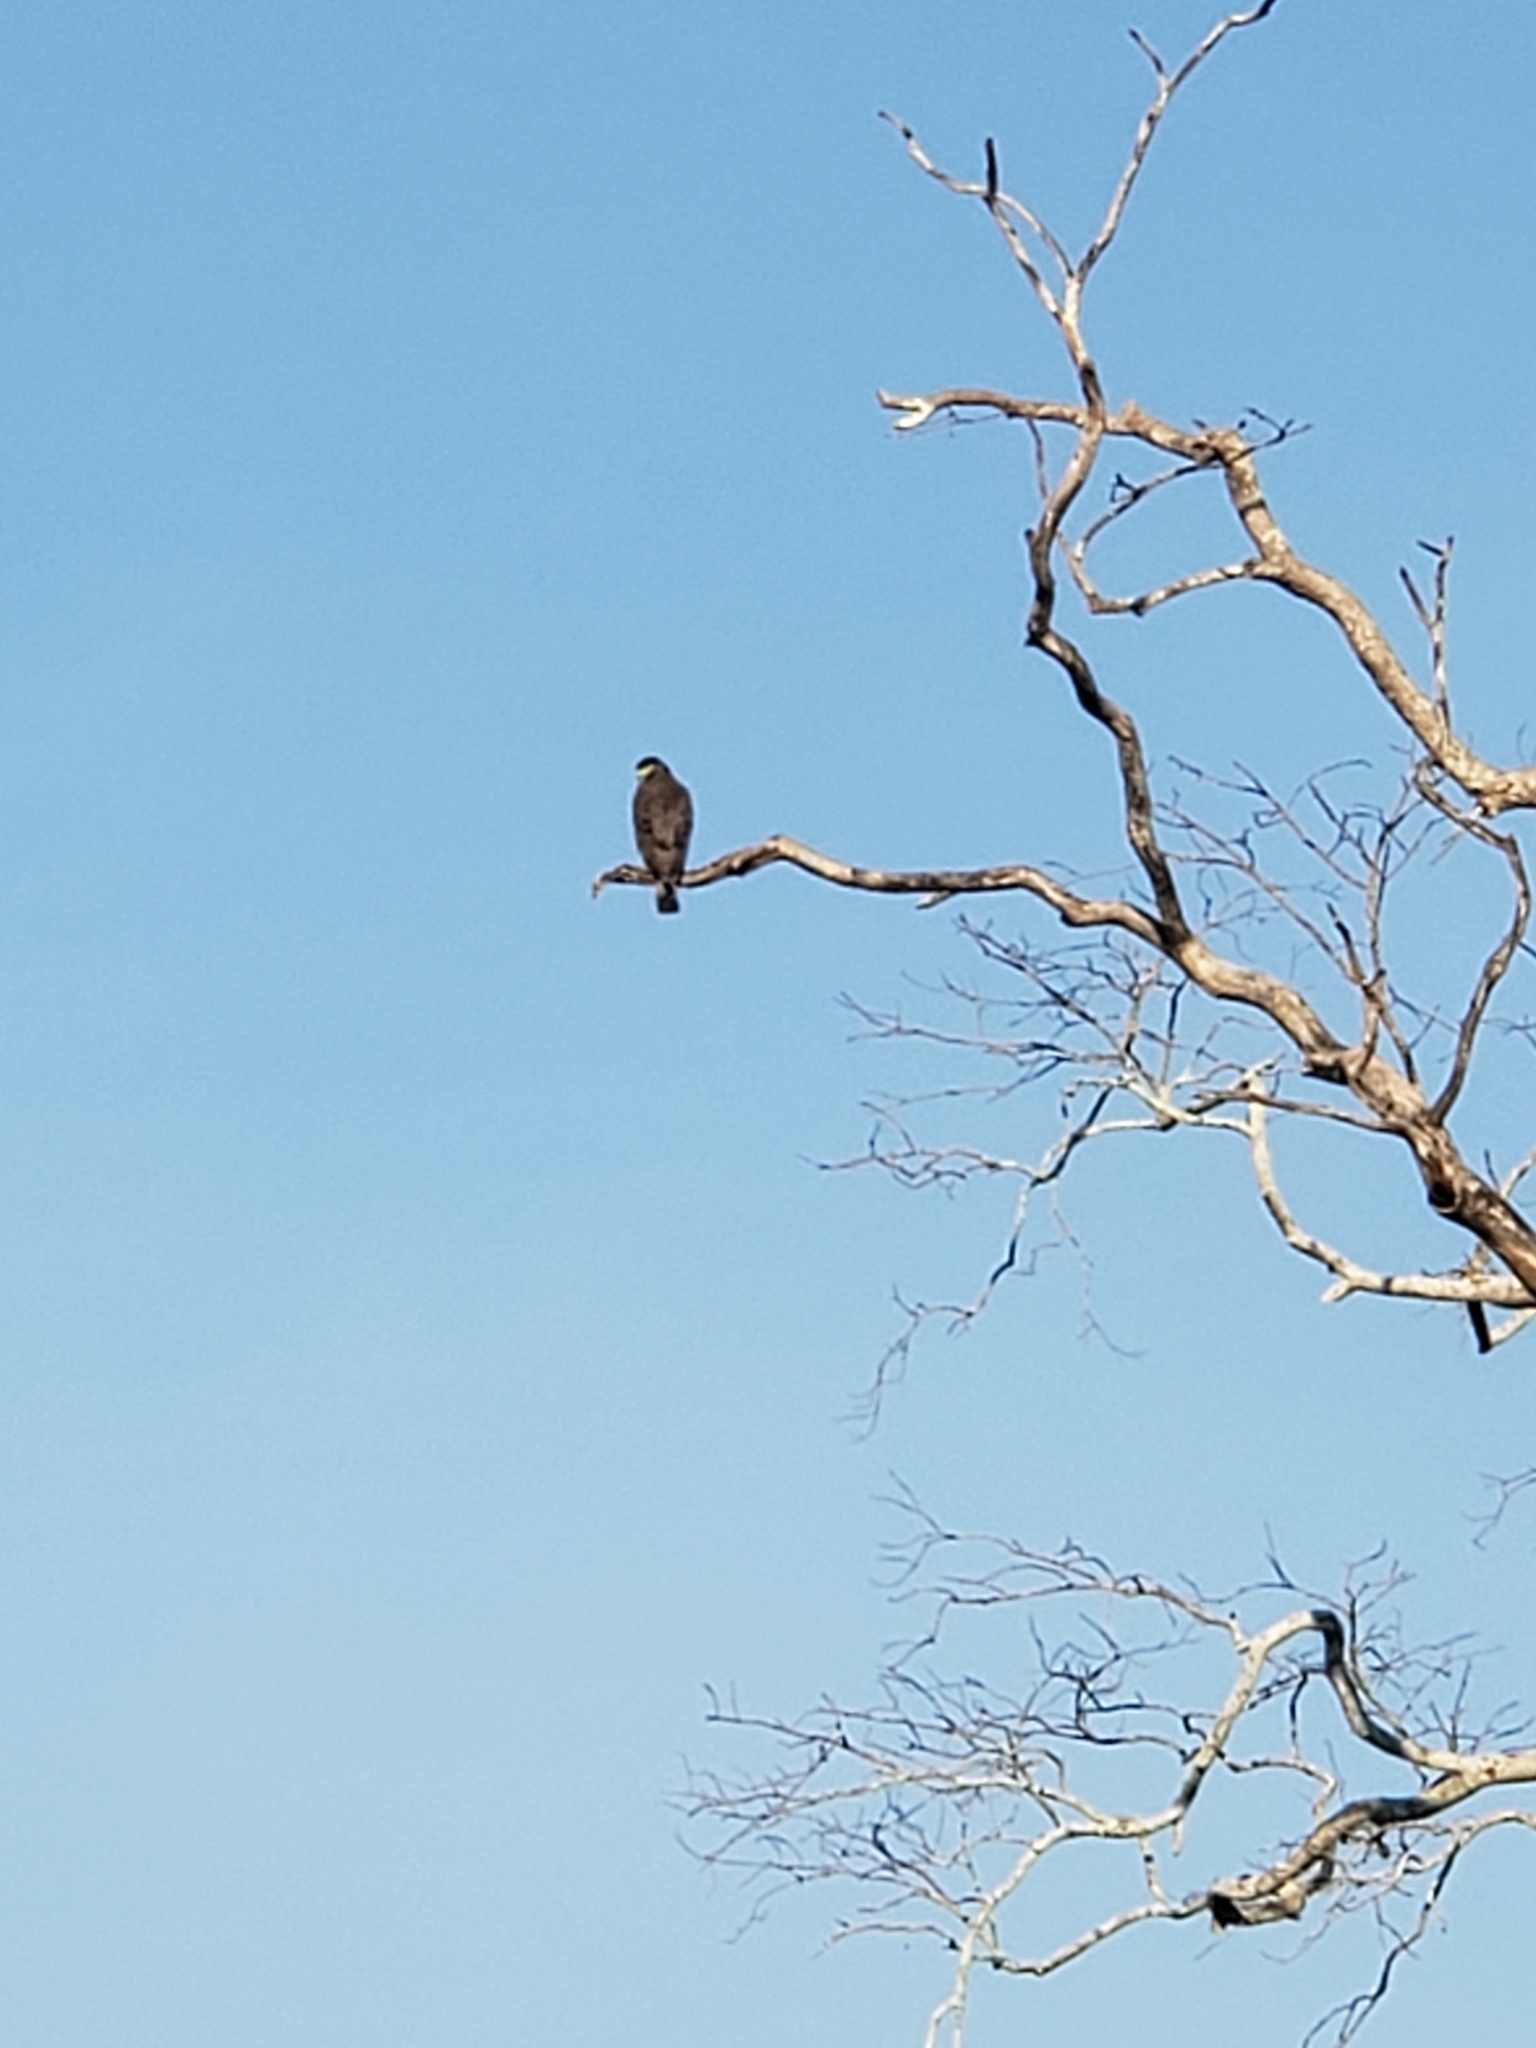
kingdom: Animalia
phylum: Chordata
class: Aves
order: Accipitriformes
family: Accipitridae
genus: Spilornis
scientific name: Spilornis cheela
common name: Crested serpent eagle
